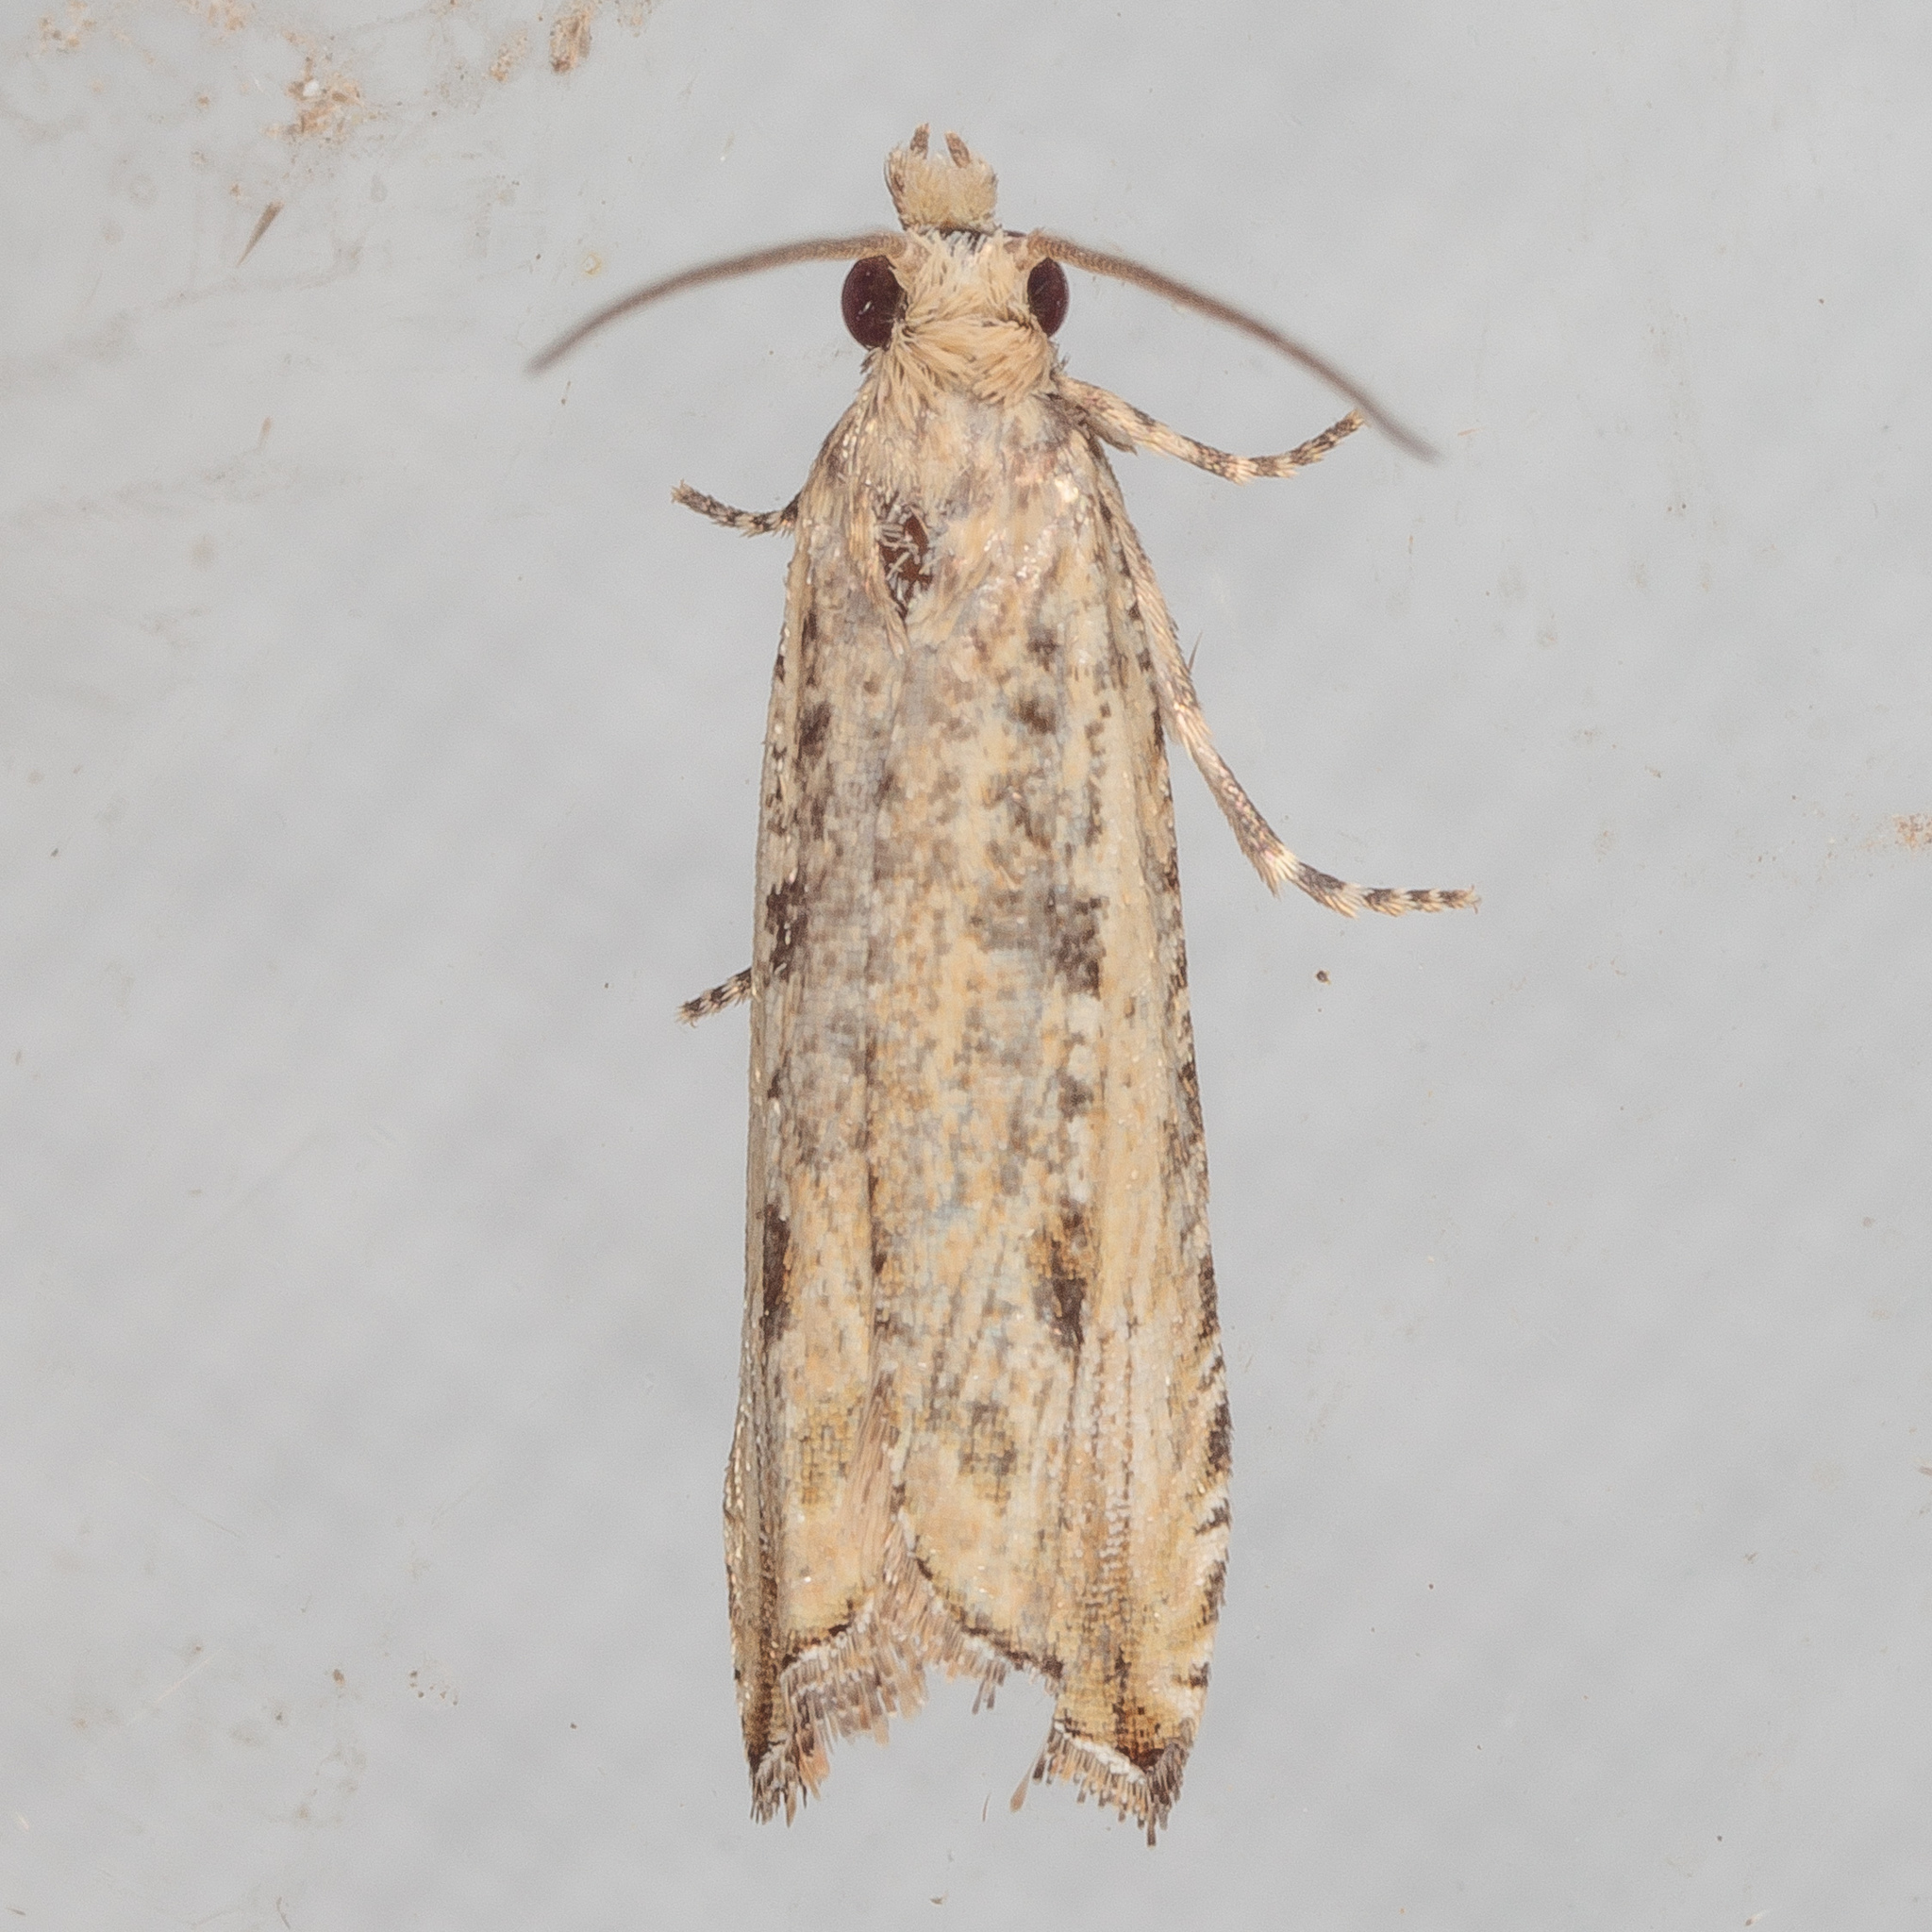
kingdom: Animalia
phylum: Arthropoda
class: Insecta
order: Lepidoptera
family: Tortricidae
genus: Bactra
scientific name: Bactra verutana
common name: Javelin moth
